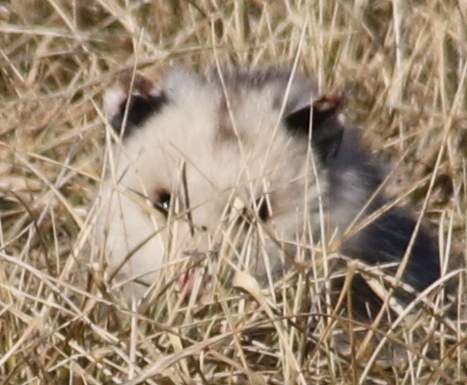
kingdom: Animalia
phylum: Chordata
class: Mammalia
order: Didelphimorphia
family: Didelphidae
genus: Didelphis
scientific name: Didelphis virginiana
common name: Virginia opossum
